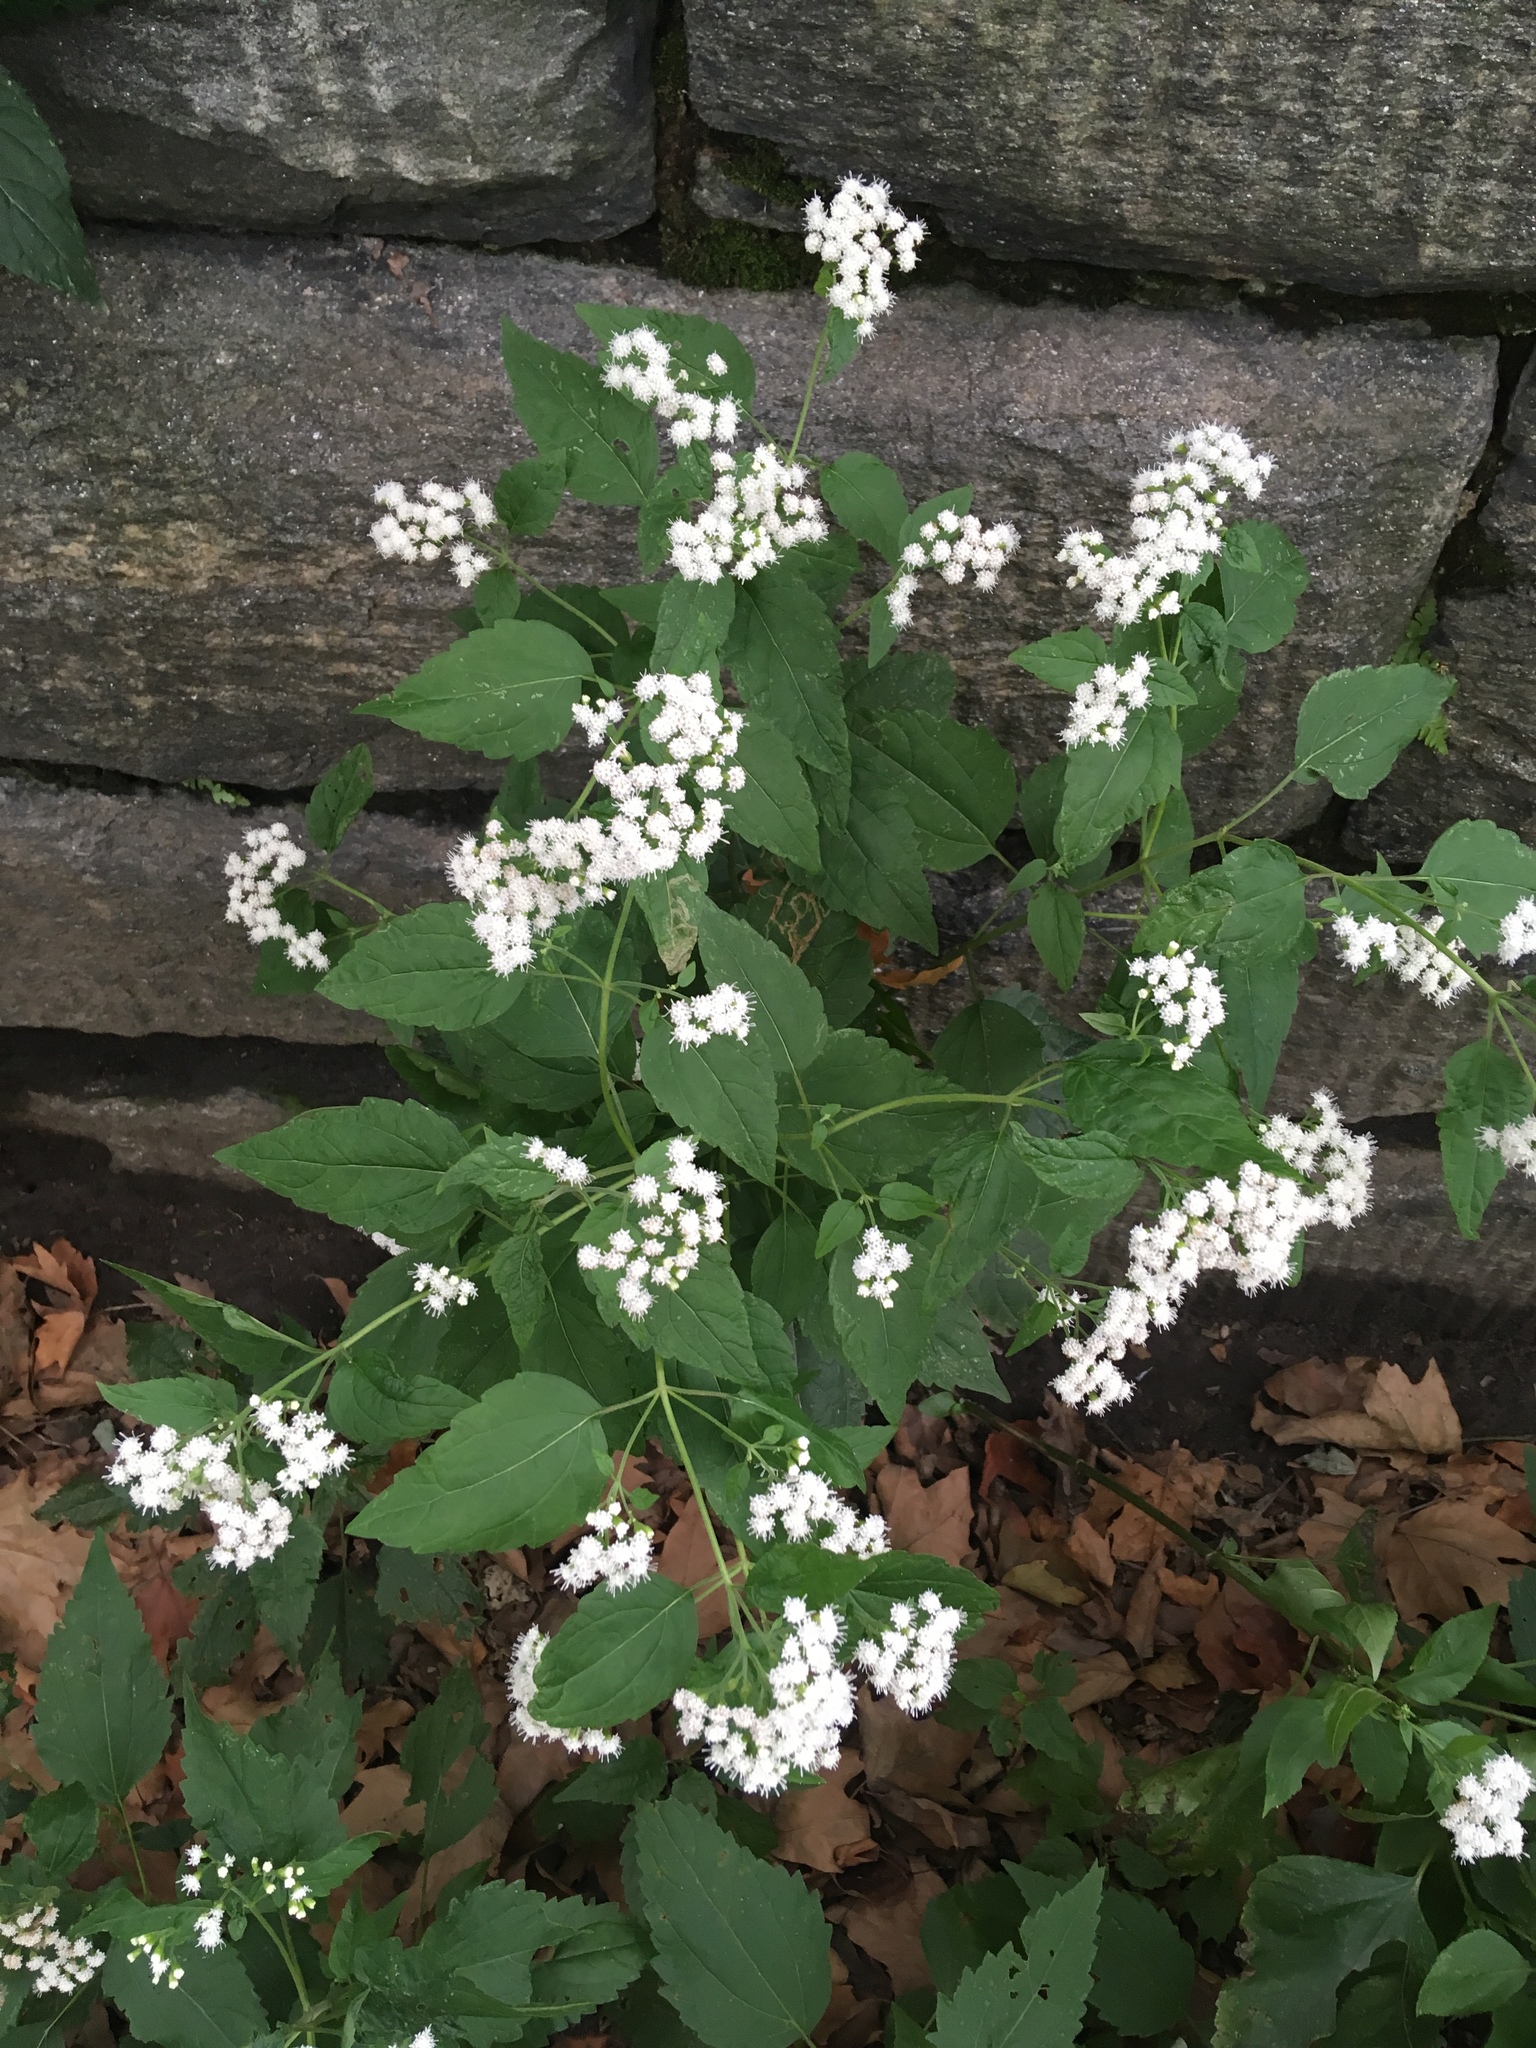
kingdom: Plantae
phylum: Tracheophyta
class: Magnoliopsida
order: Asterales
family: Asteraceae
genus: Ageratina
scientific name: Ageratina altissima
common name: White snakeroot
